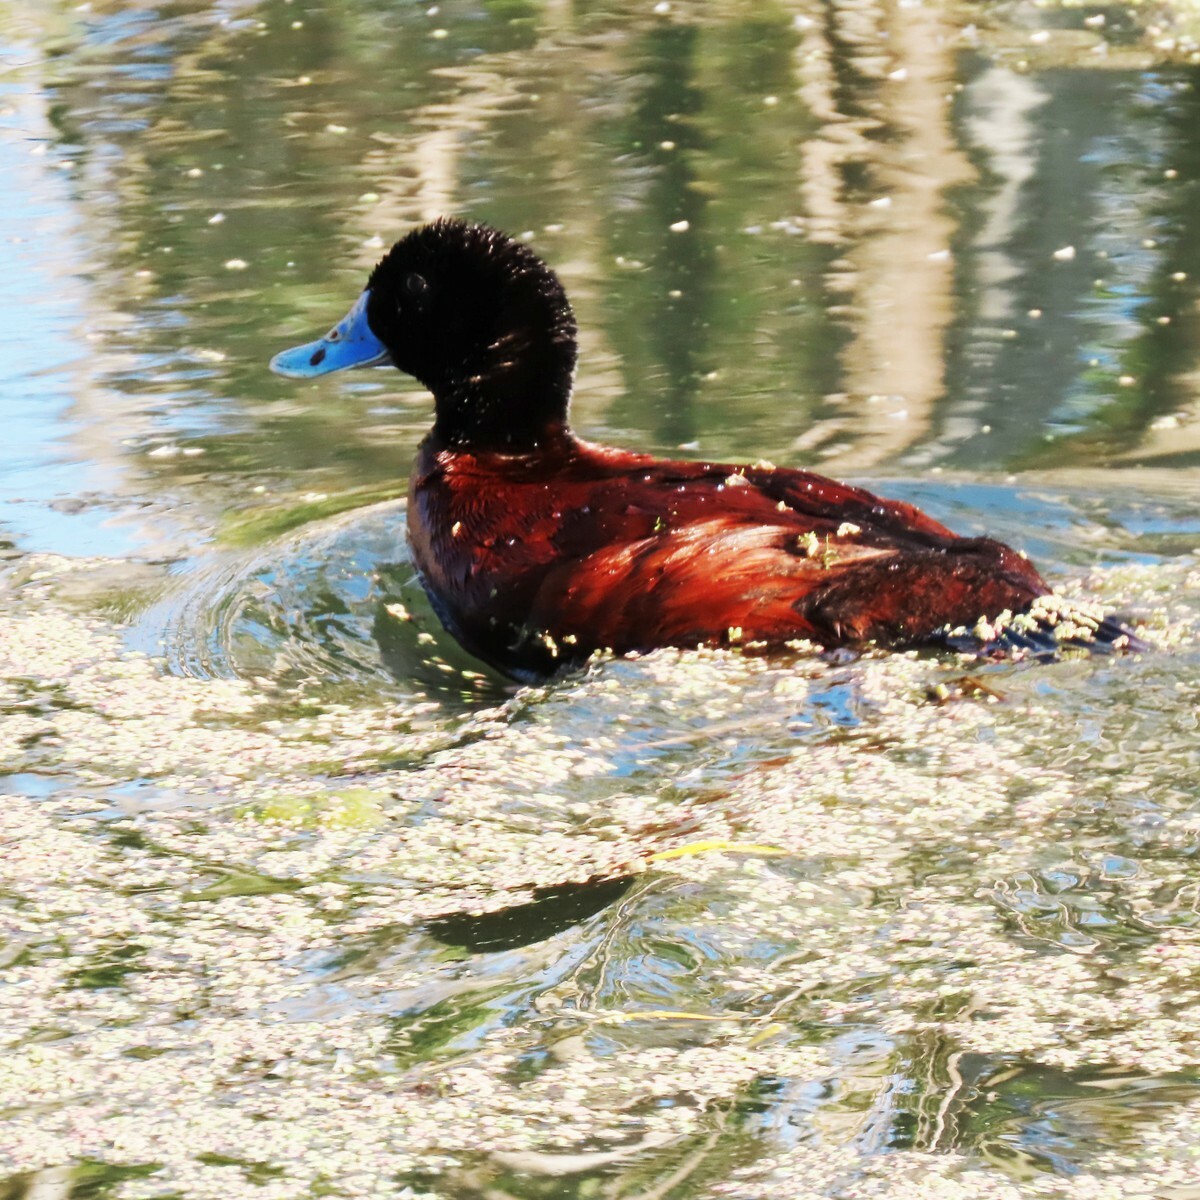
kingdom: Animalia
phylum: Chordata
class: Aves
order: Anseriformes
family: Anatidae
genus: Oxyura
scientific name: Oxyura australis
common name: Blue-billed duck
